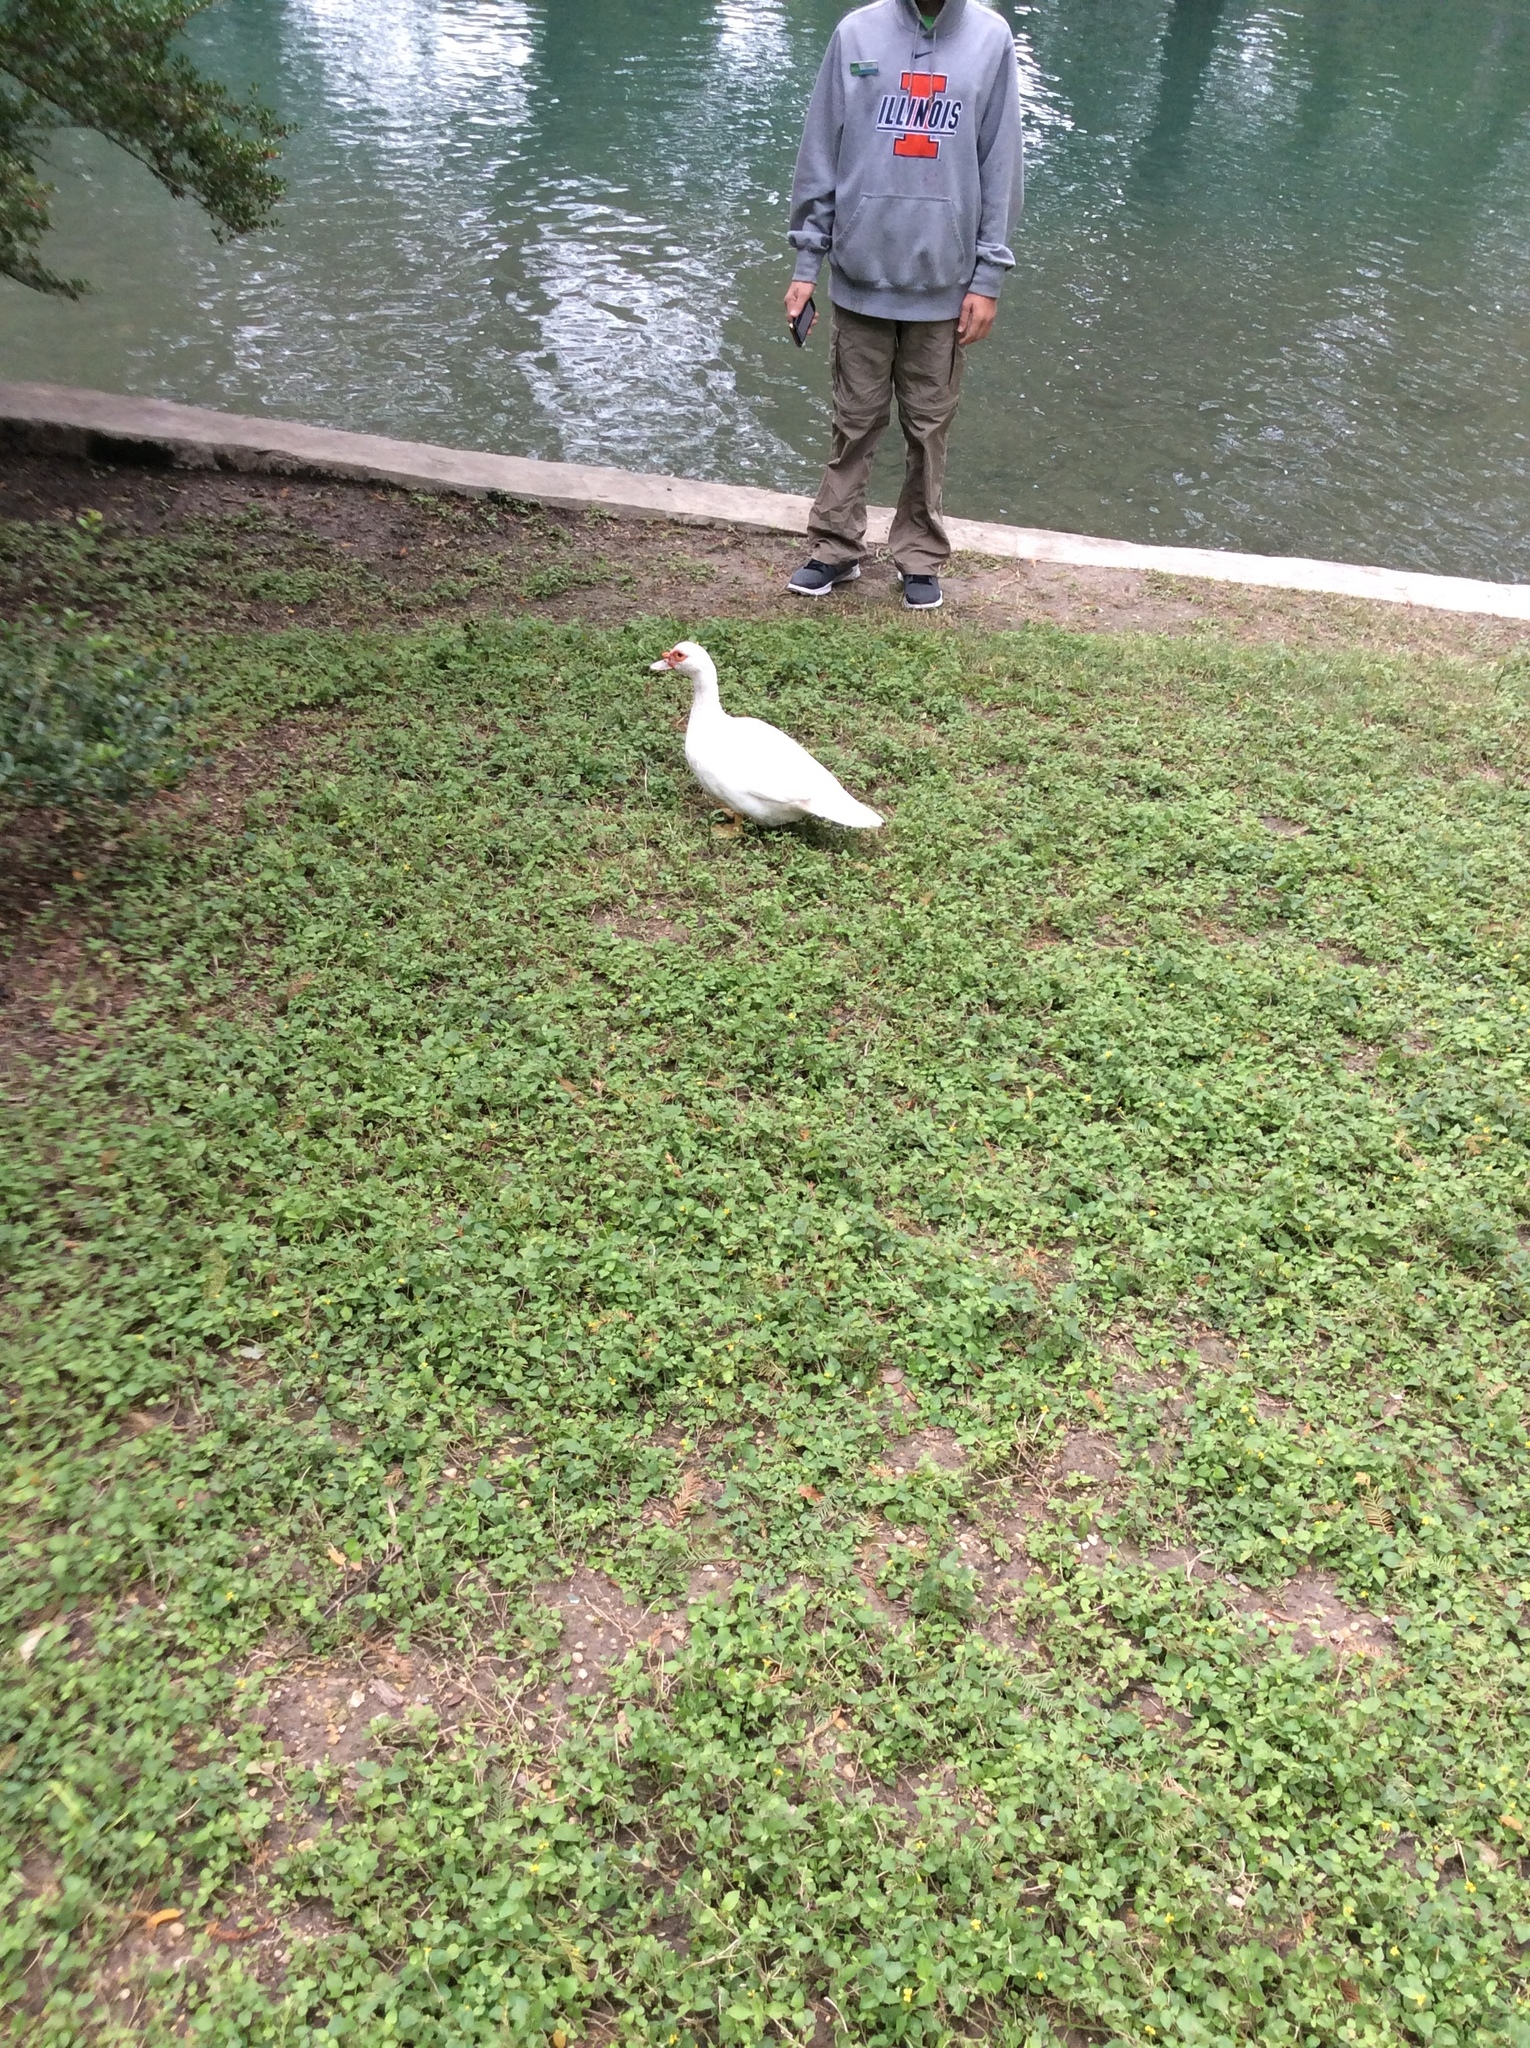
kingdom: Animalia
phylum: Chordata
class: Aves
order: Anseriformes
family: Anatidae
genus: Cairina
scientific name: Cairina moschata
